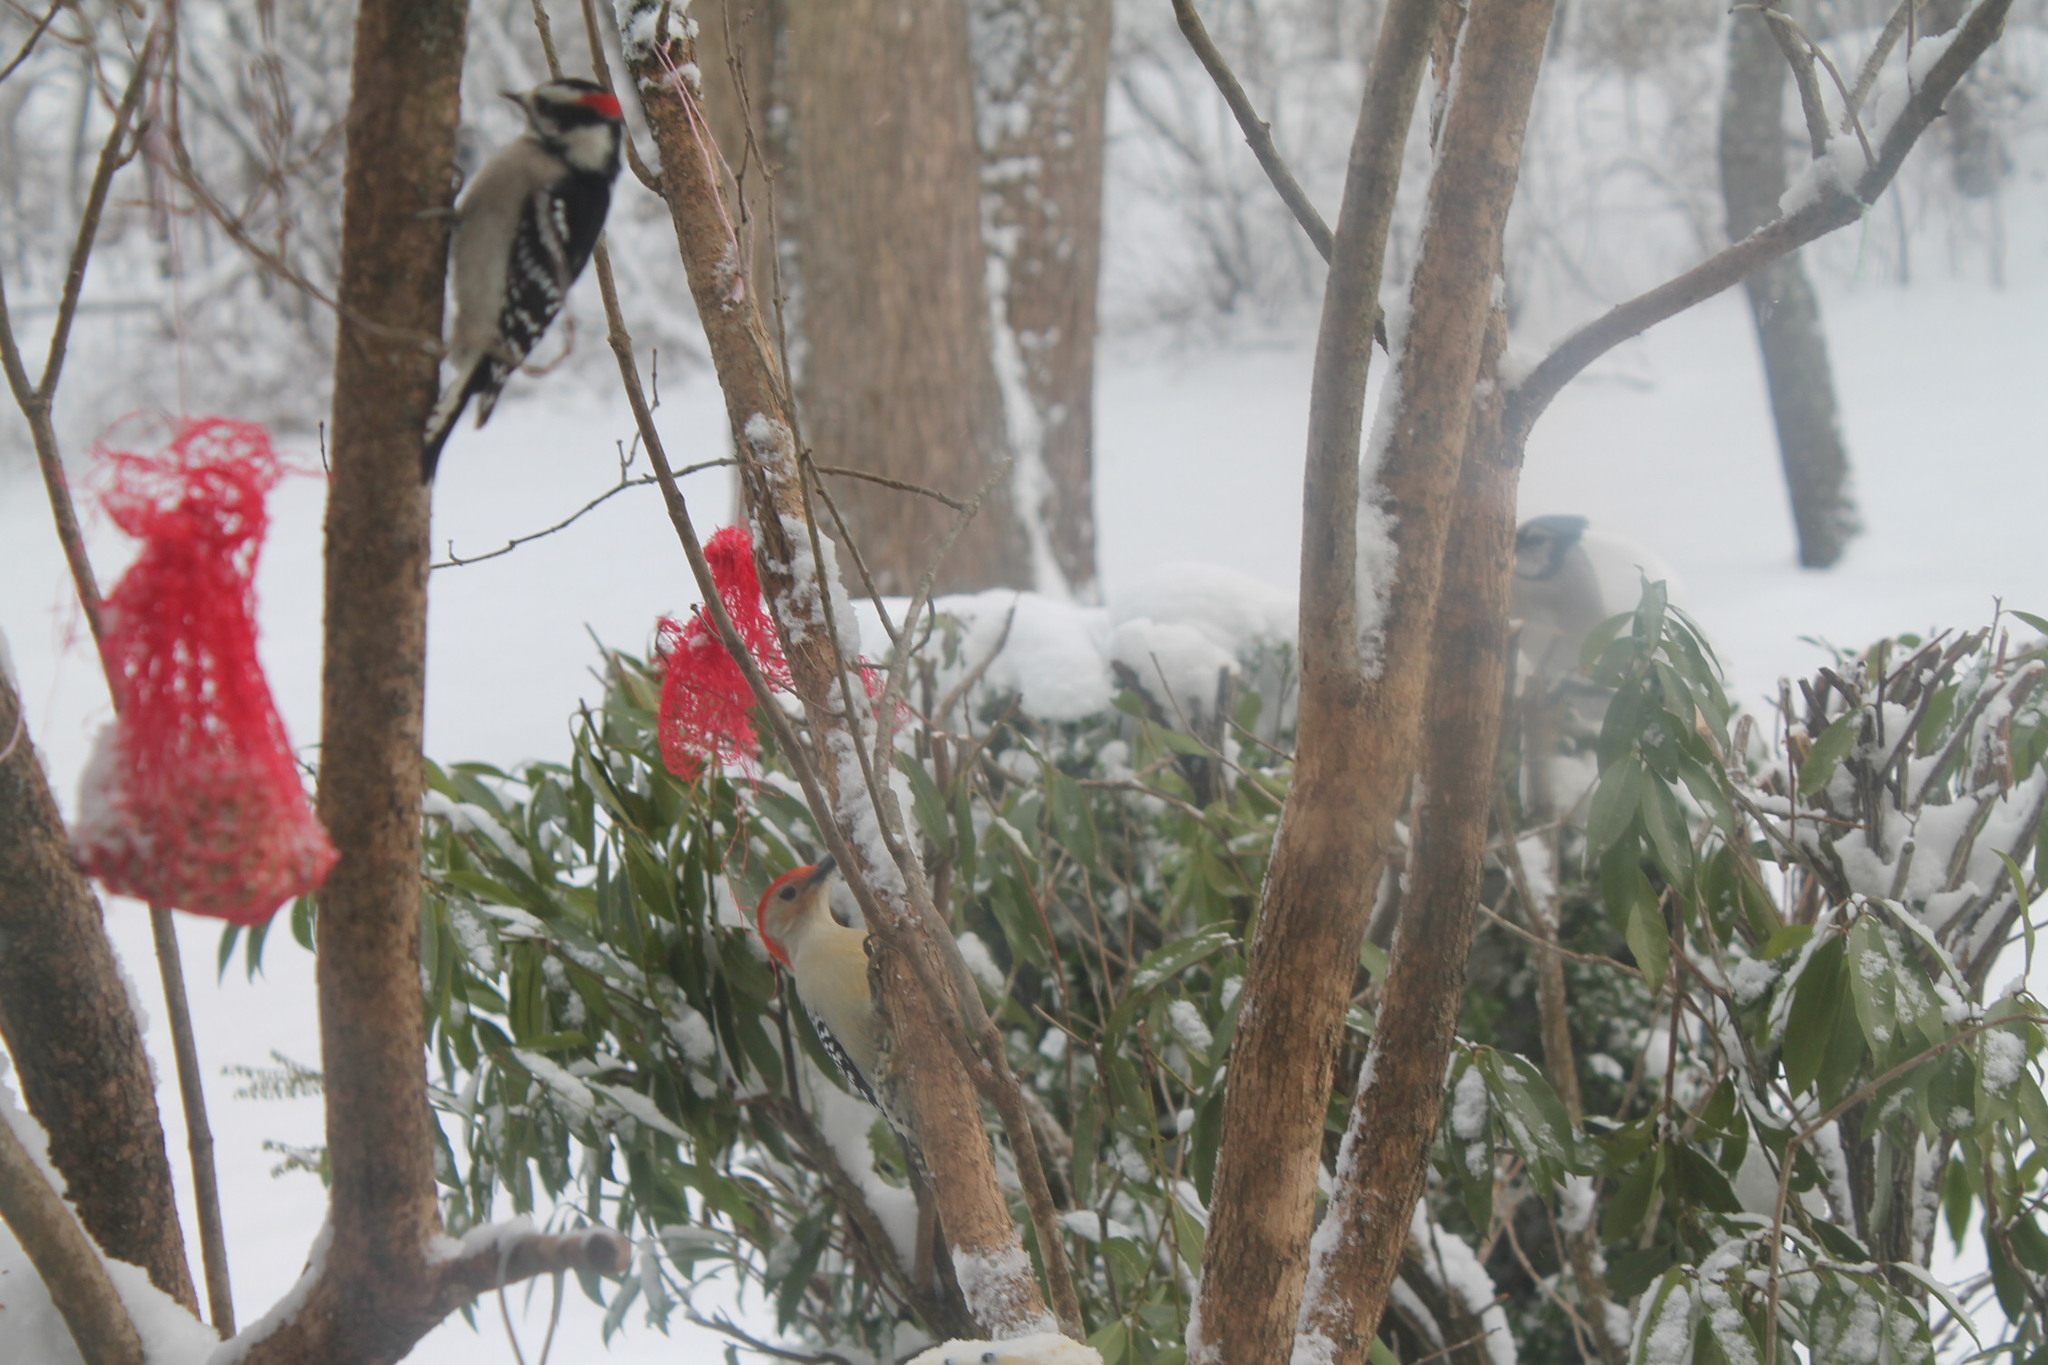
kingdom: Animalia
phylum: Chordata
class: Aves
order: Piciformes
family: Picidae
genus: Melanerpes
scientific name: Melanerpes carolinus
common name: Red-bellied woodpecker
